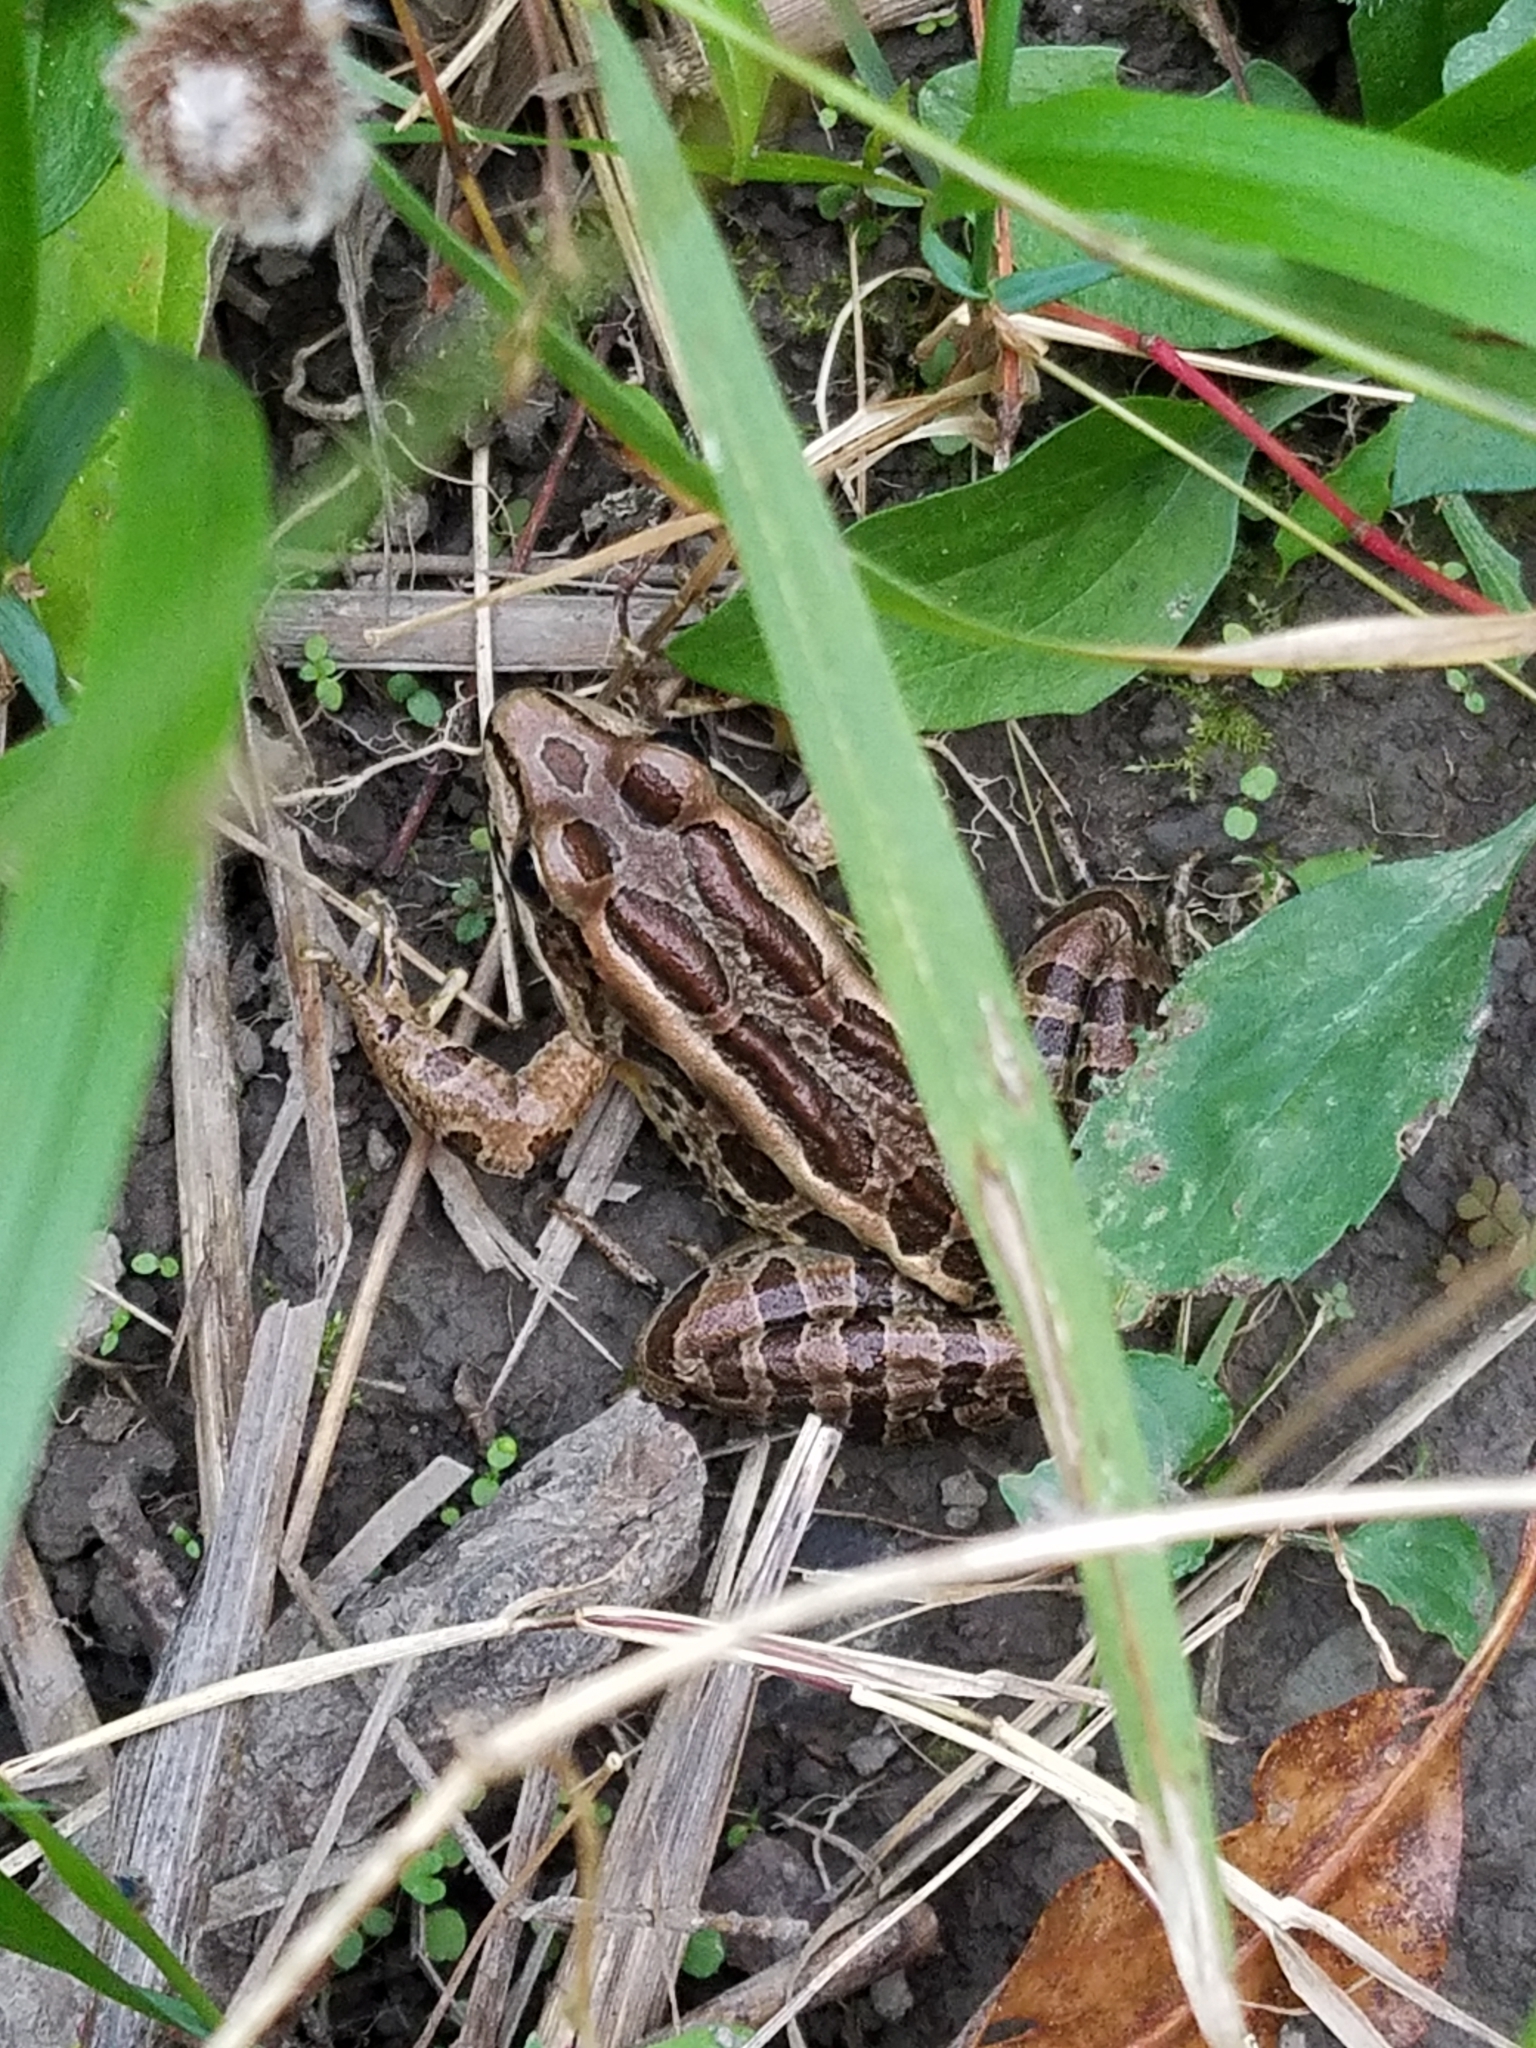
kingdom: Animalia
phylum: Chordata
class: Amphibia
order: Anura
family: Ranidae
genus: Lithobates
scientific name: Lithobates palustris
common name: Pickerel frog
